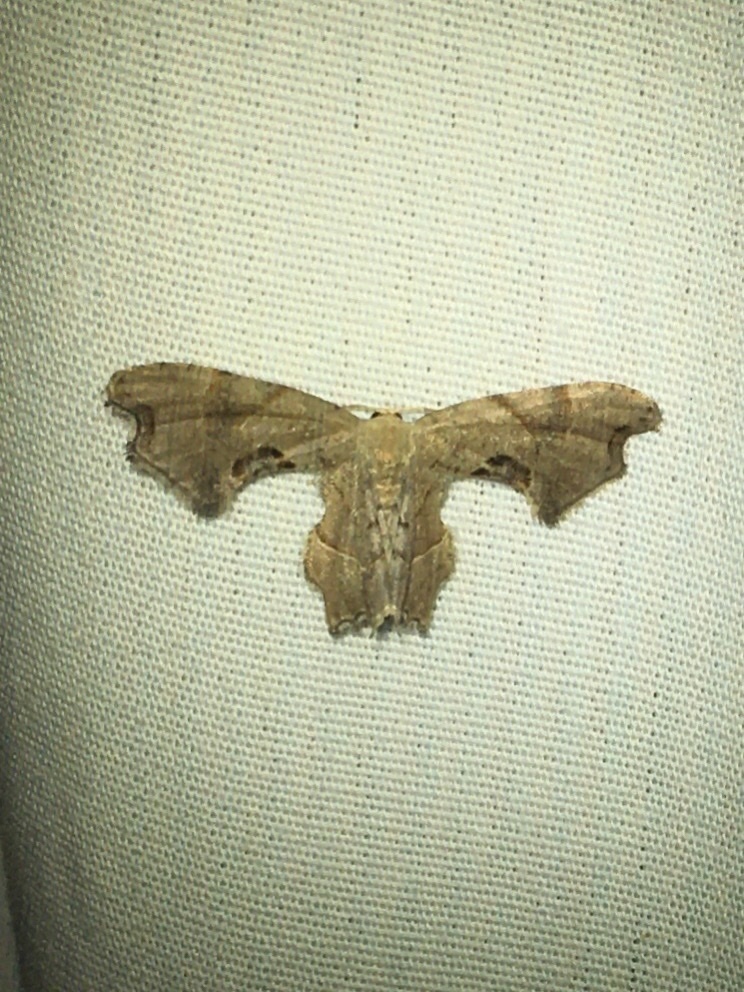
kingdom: Animalia
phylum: Arthropoda
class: Insecta
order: Lepidoptera
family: Uraniidae
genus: Epiplema
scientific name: Epiplema Calledapteryx dryopterata
